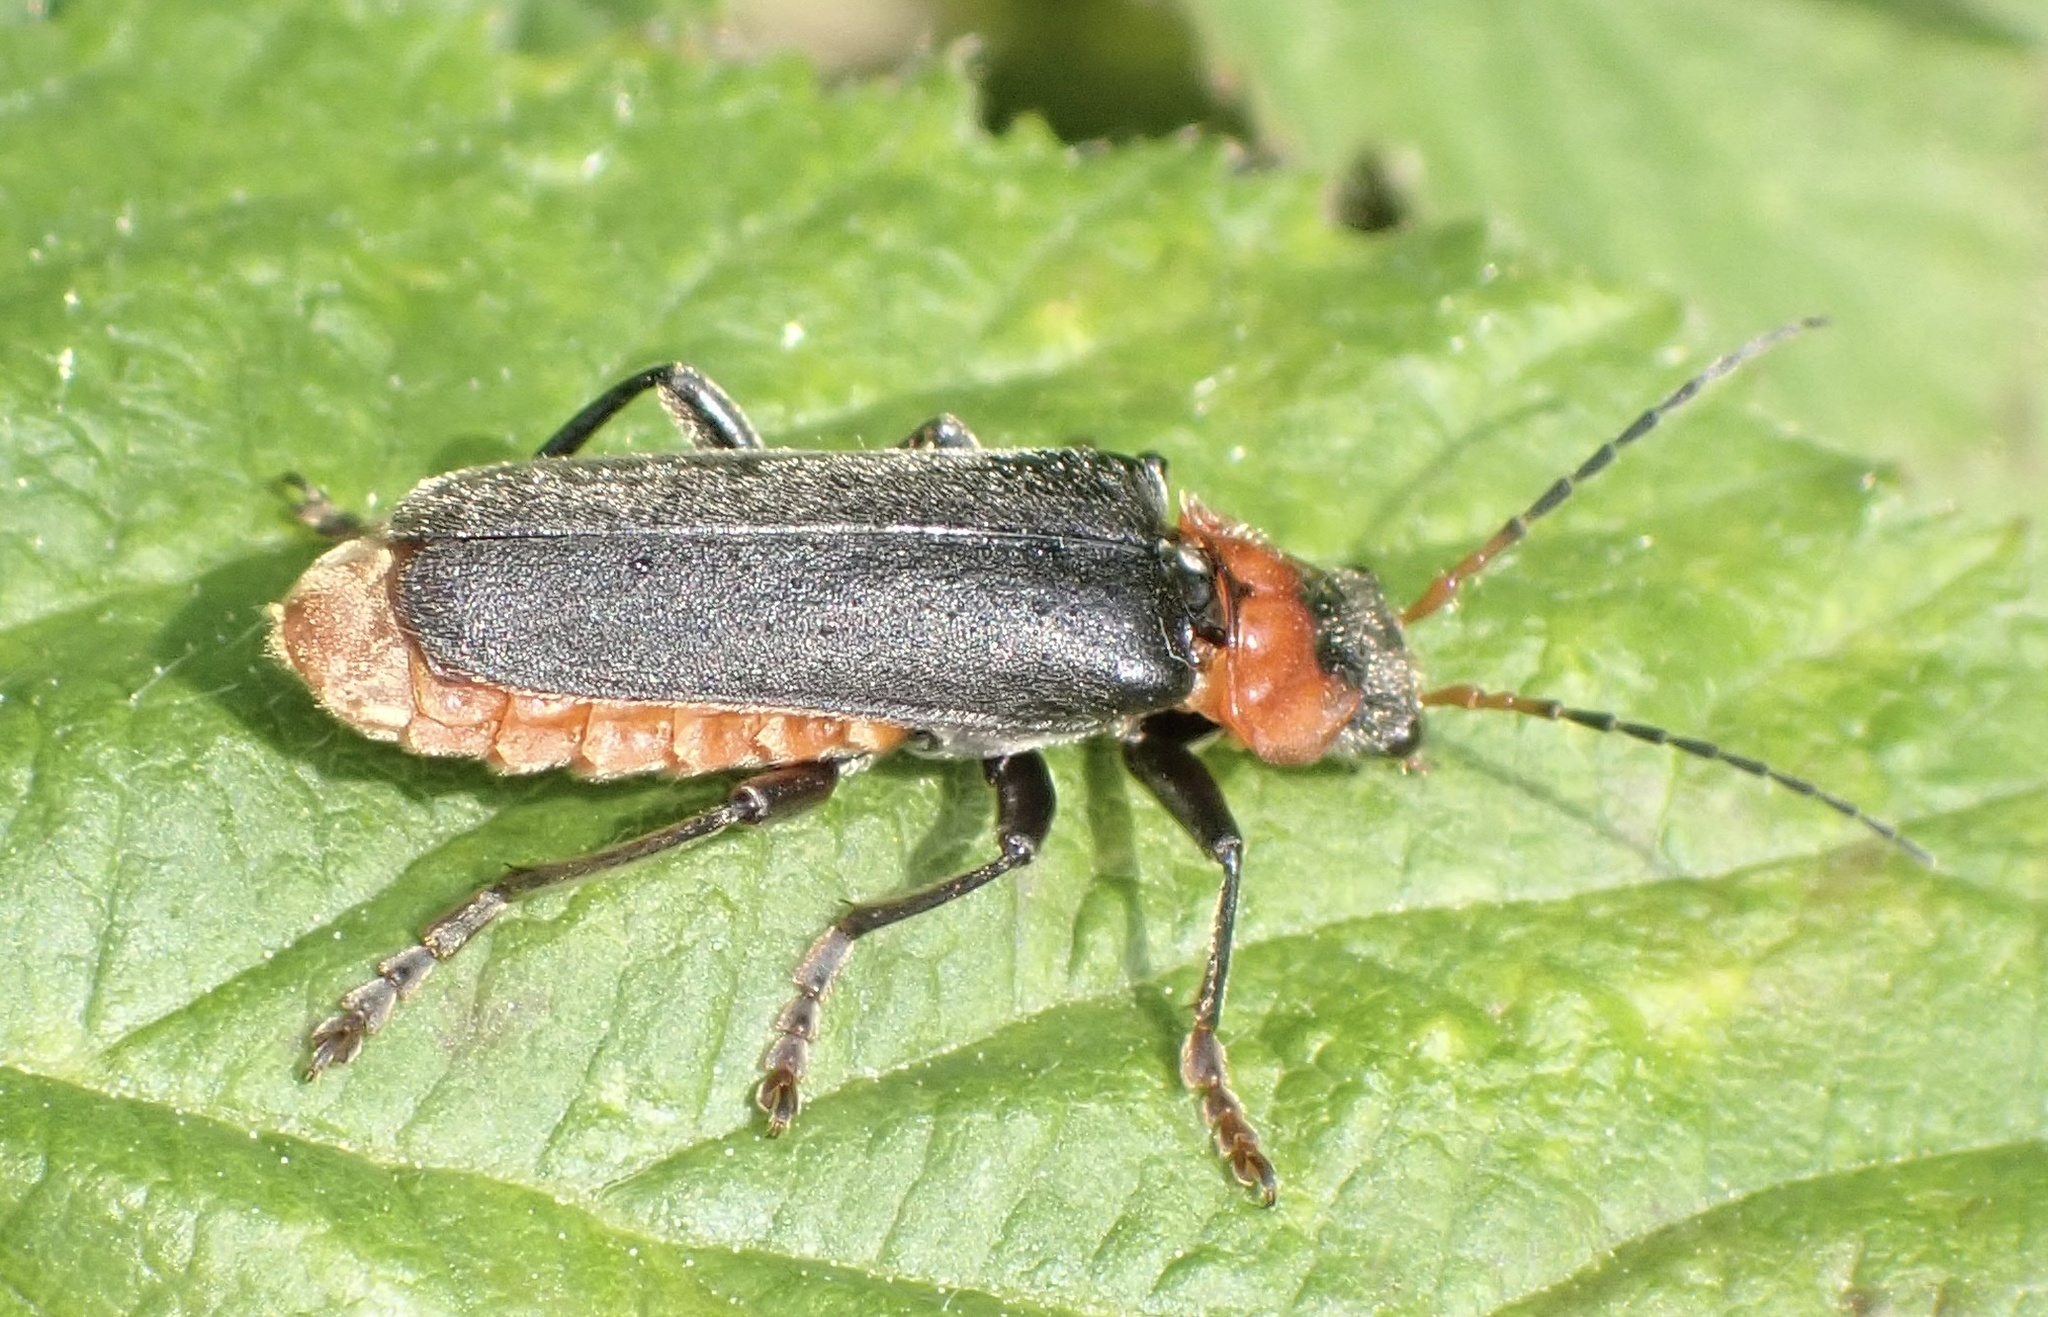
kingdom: Animalia
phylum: Arthropoda
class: Insecta
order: Coleoptera
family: Cantharidae
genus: Cantharis
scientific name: Cantharis fusca
